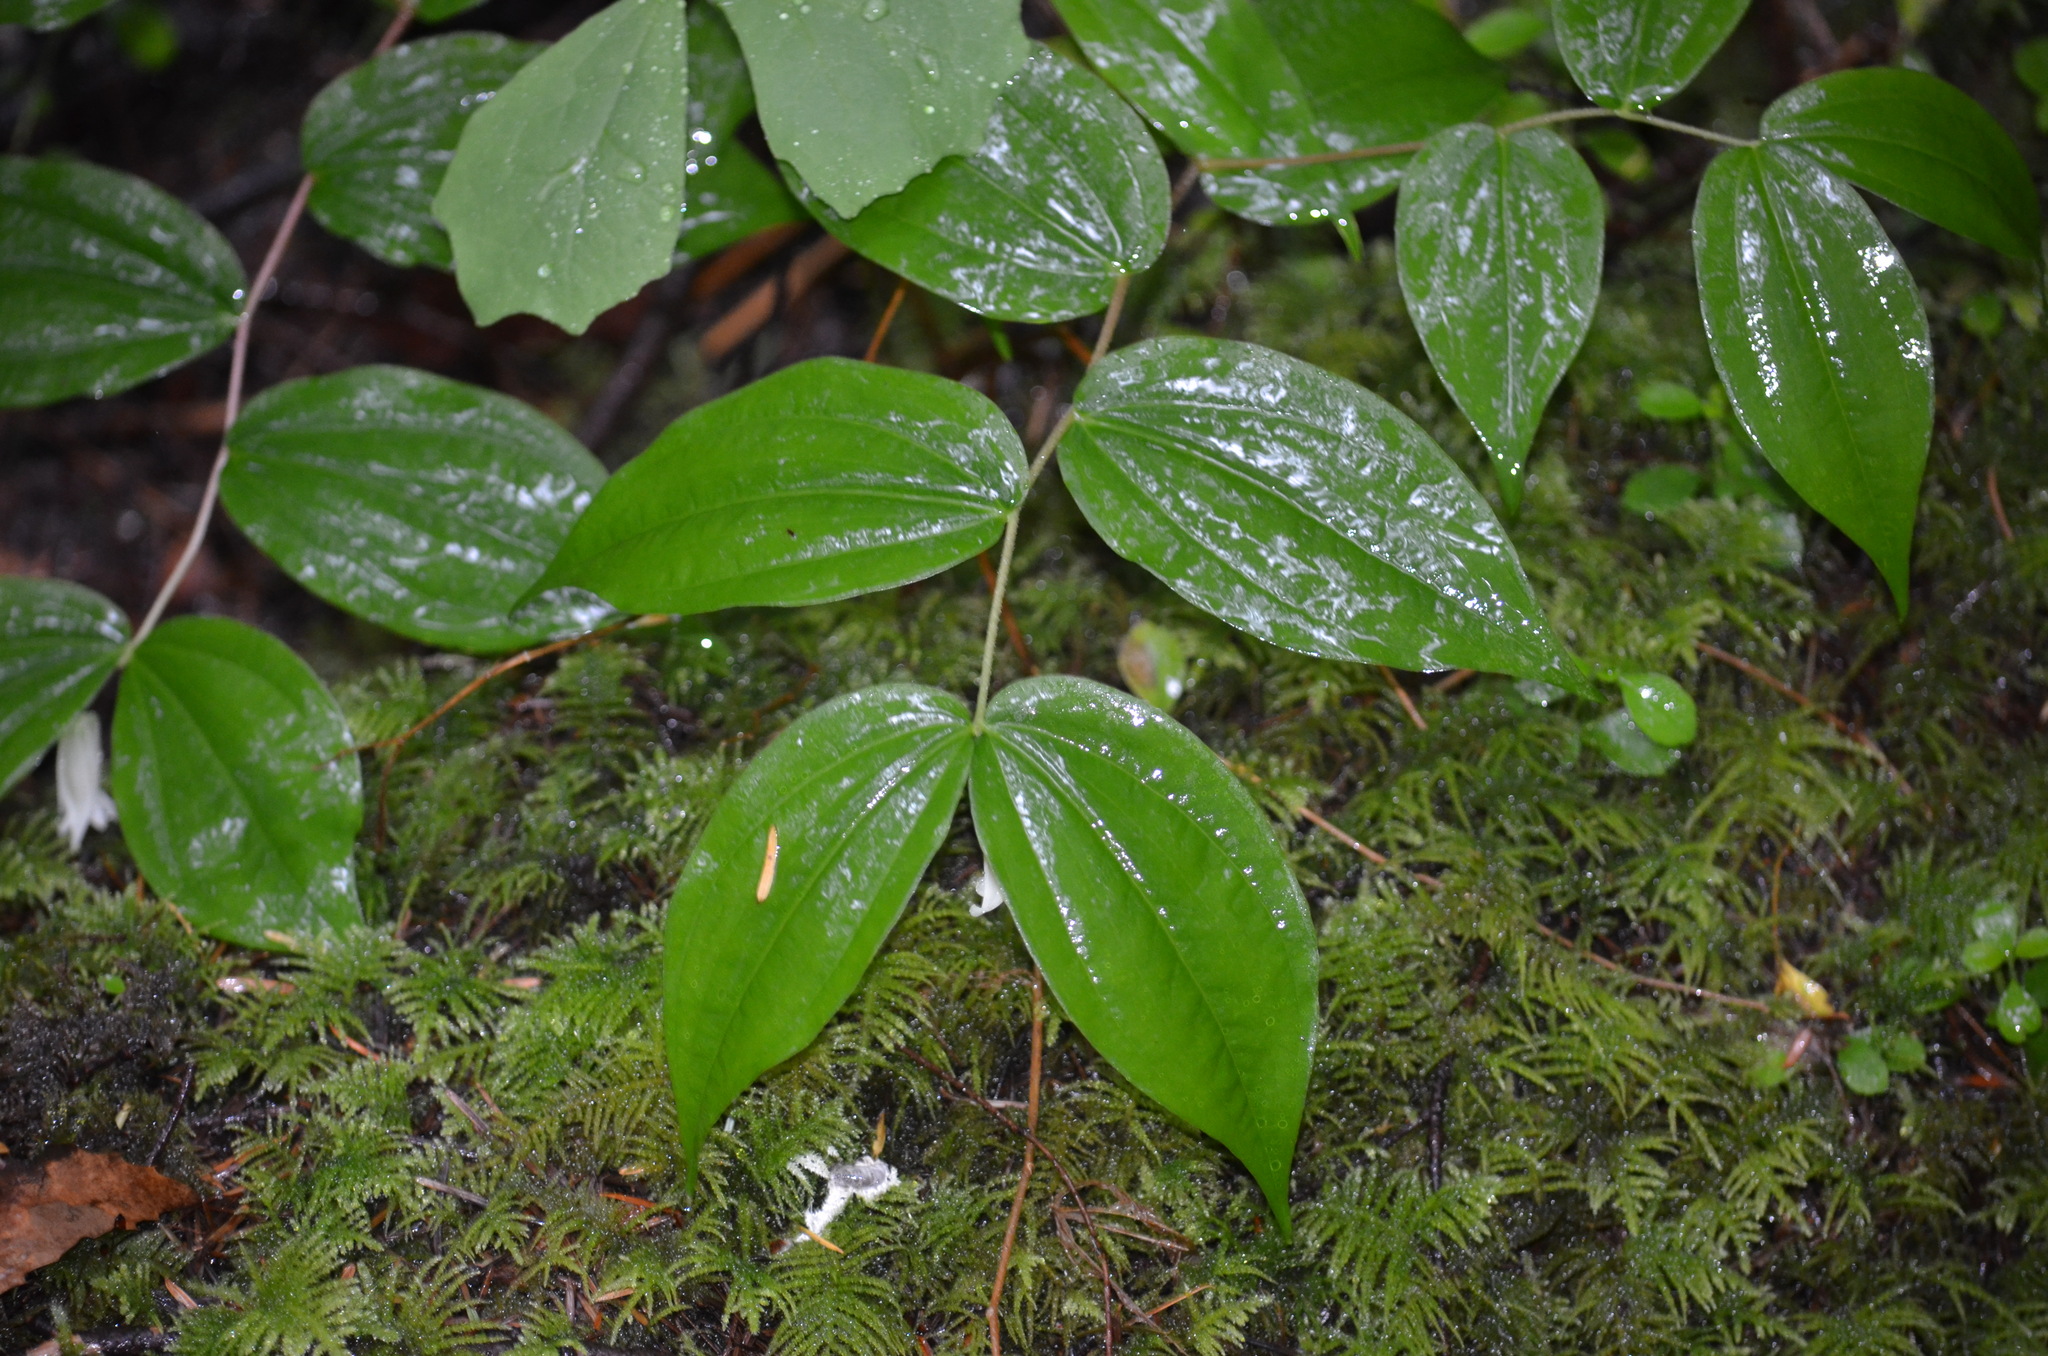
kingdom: Plantae
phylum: Tracheophyta
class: Liliopsida
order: Liliales
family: Liliaceae
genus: Prosartes
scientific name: Prosartes smithii
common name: Fairy-lantern
